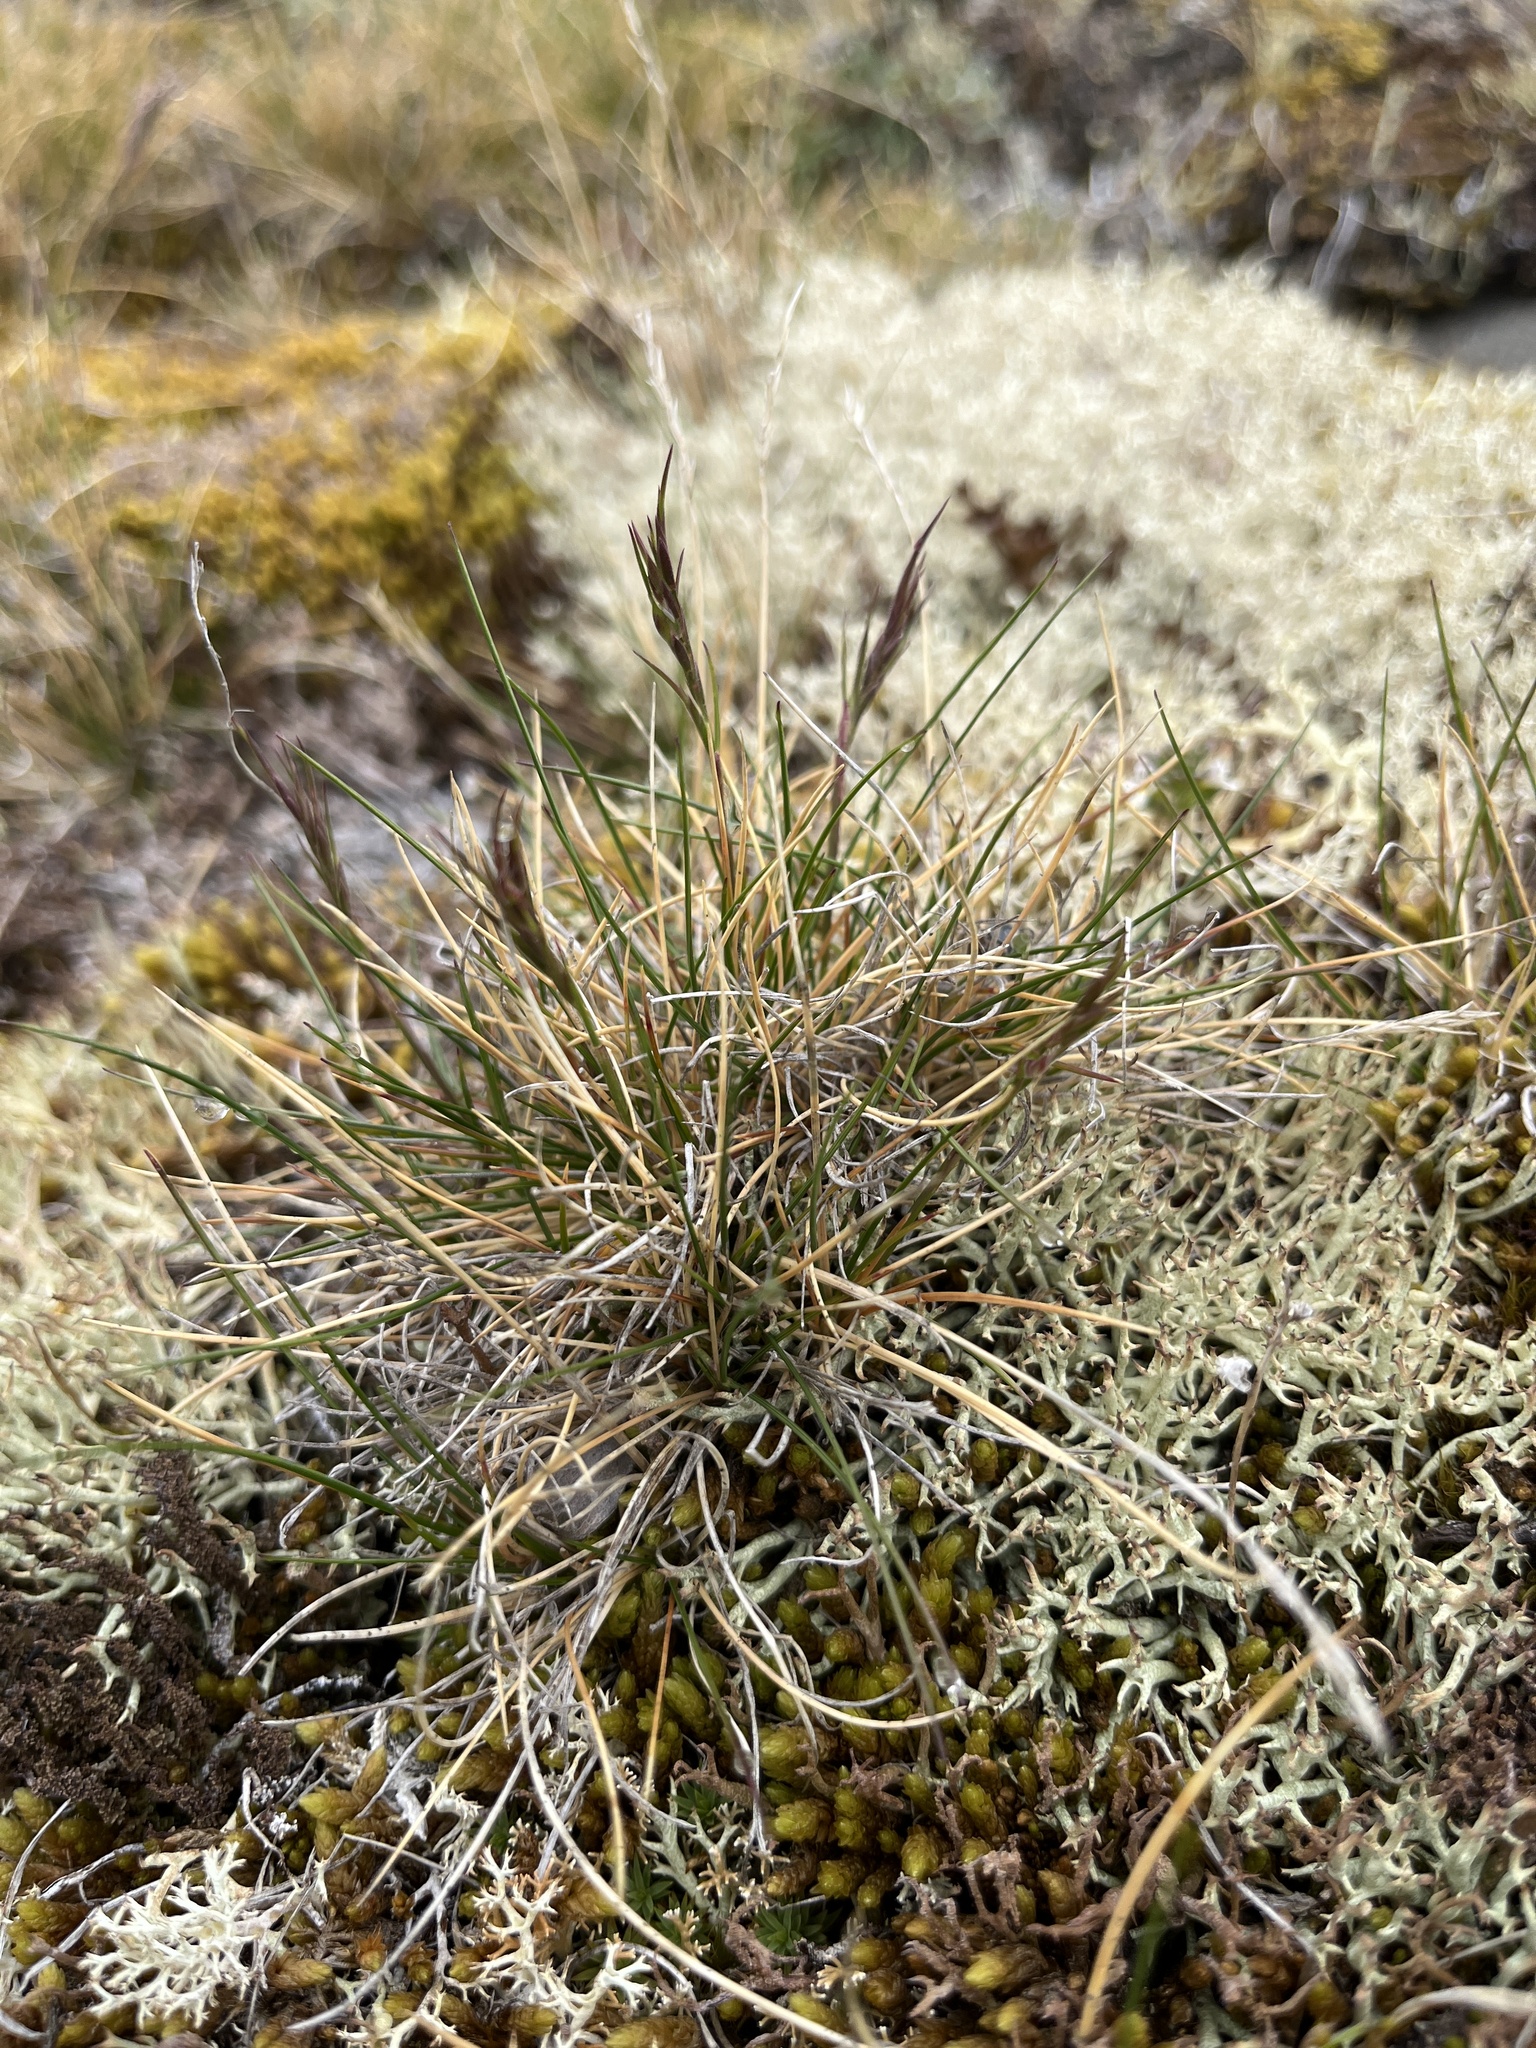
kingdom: Plantae
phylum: Tracheophyta
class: Liliopsida
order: Poales
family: Poaceae
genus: Festuca
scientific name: Festuca vivipara
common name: Viviparous sheep's-fescue
